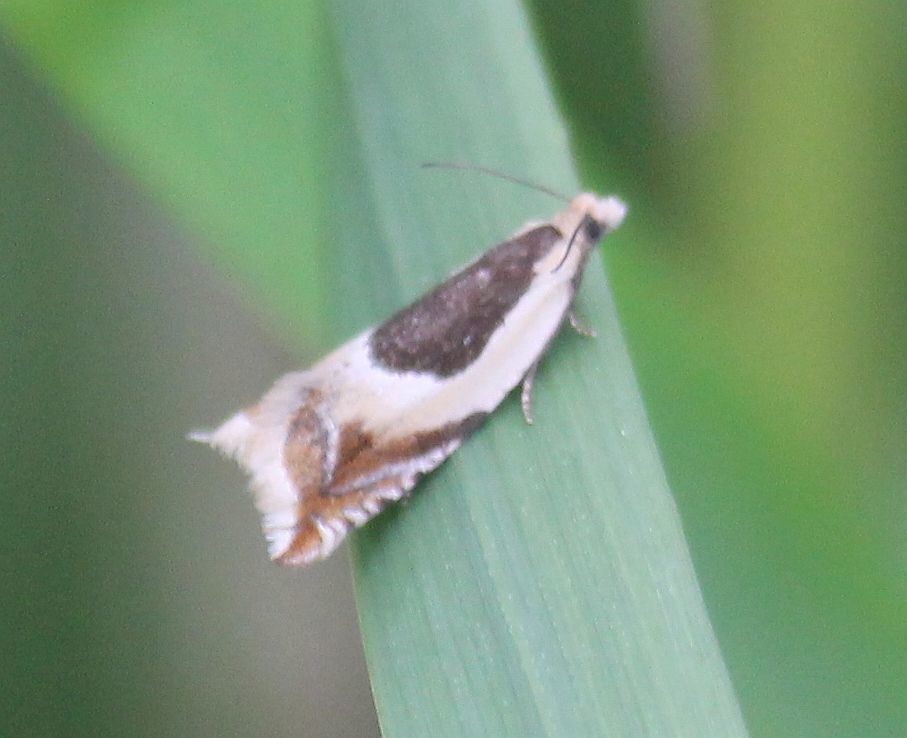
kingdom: Animalia
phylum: Arthropoda
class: Insecta
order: Lepidoptera
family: Tortricidae
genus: Ancylis
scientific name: Ancylis badiana
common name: Common roller
